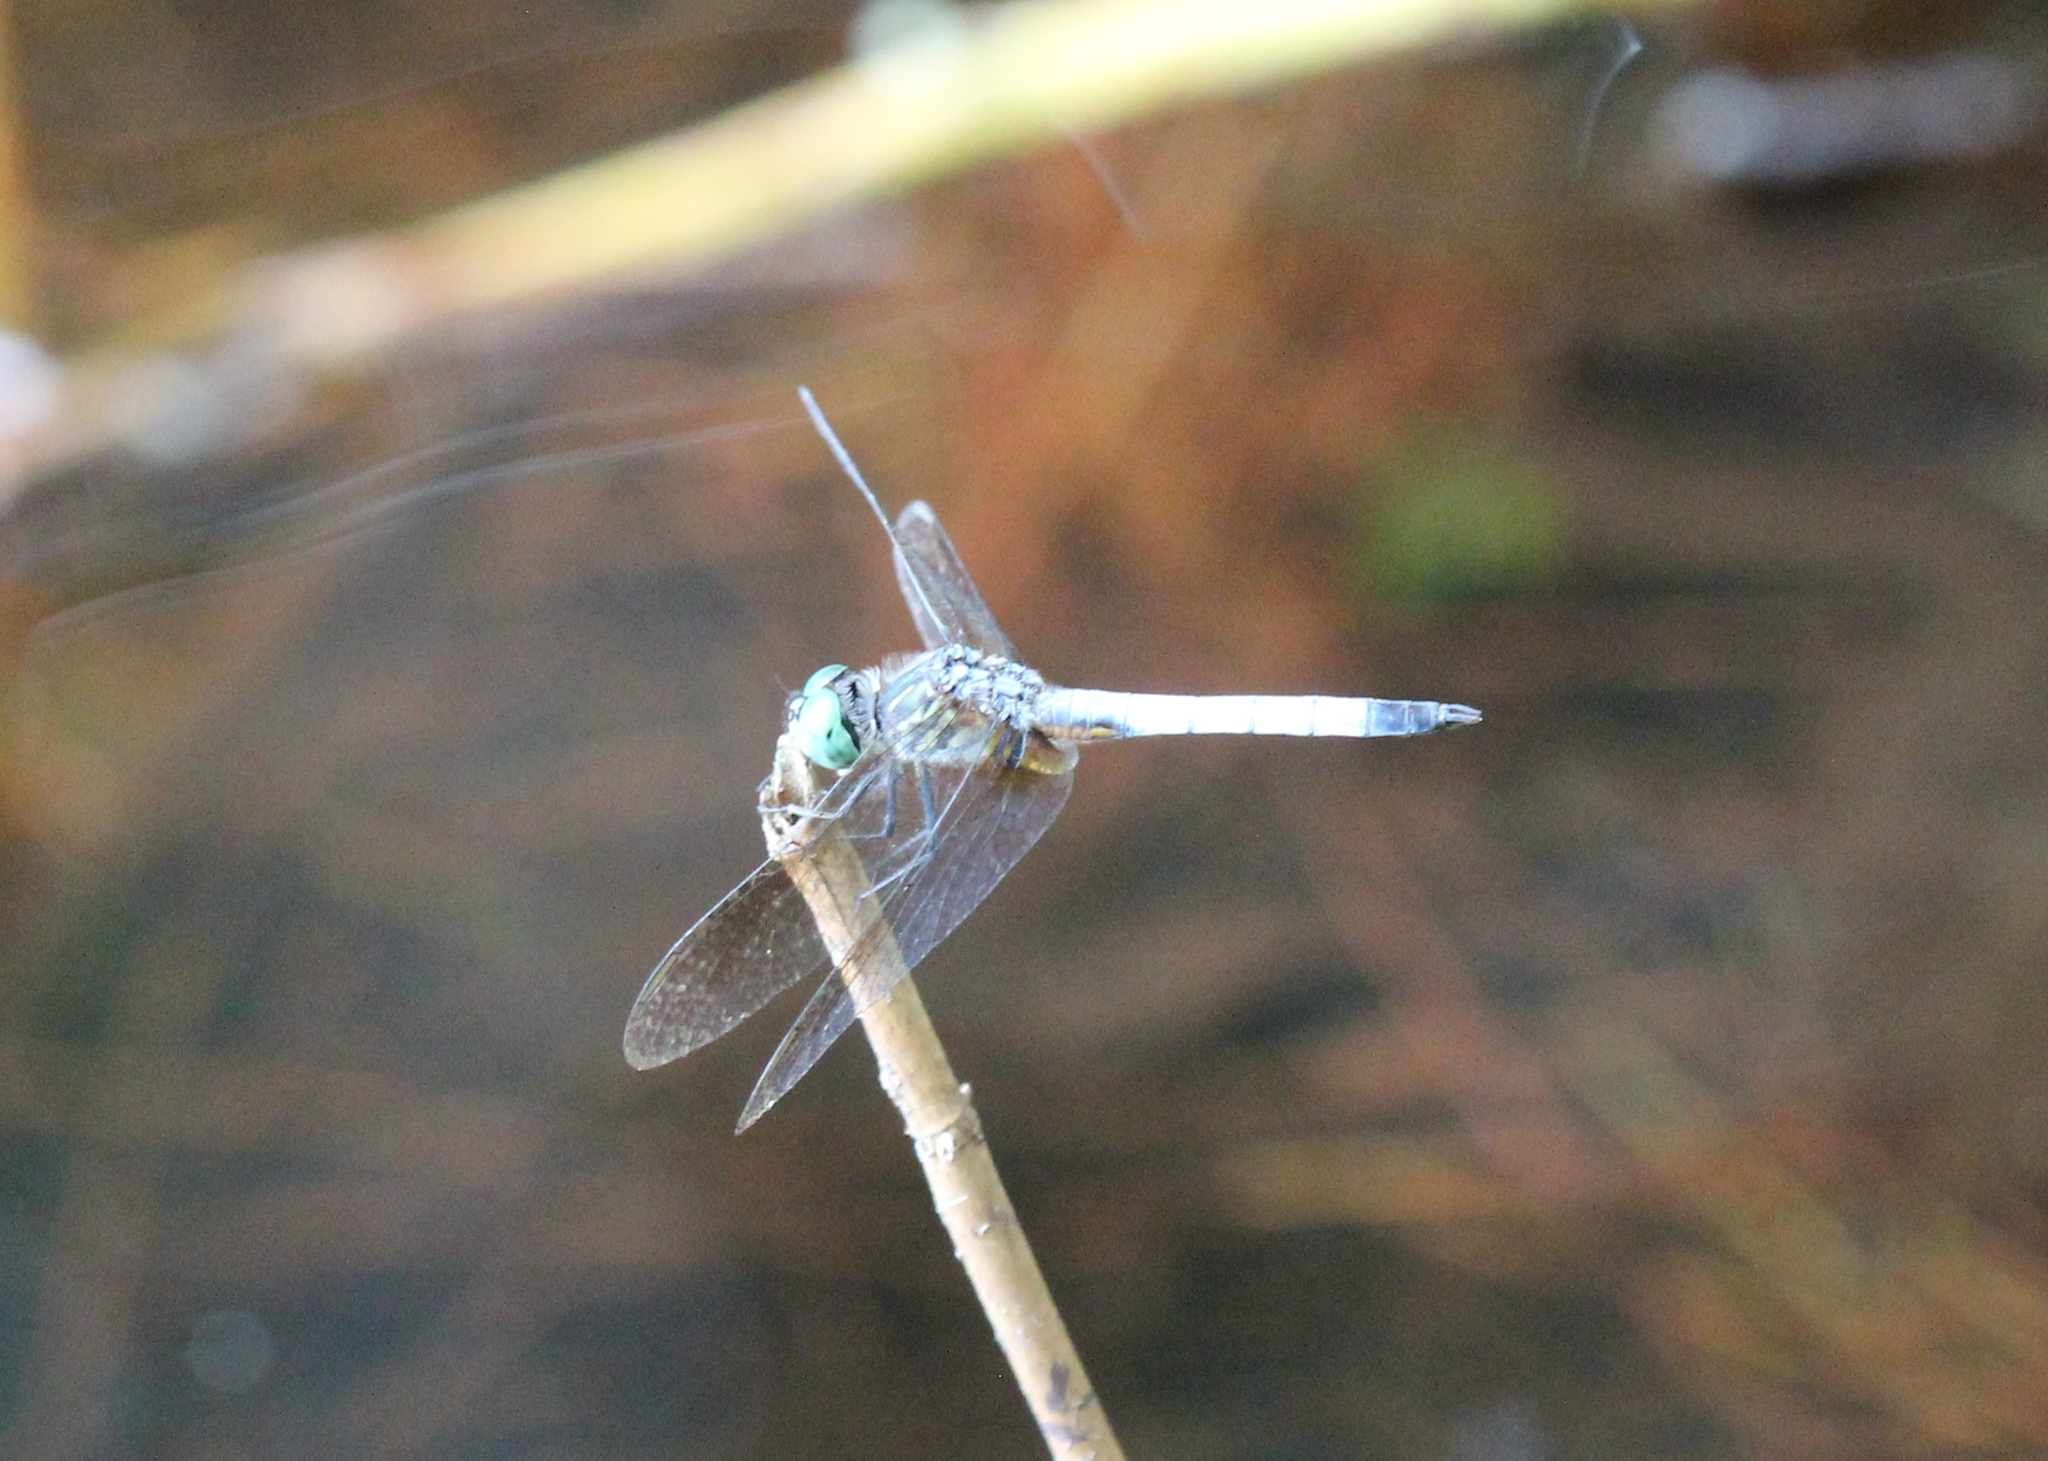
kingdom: Animalia
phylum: Arthropoda
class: Insecta
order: Odonata
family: Libellulidae
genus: Pachydiplax
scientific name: Pachydiplax longipennis
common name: Blue dasher
